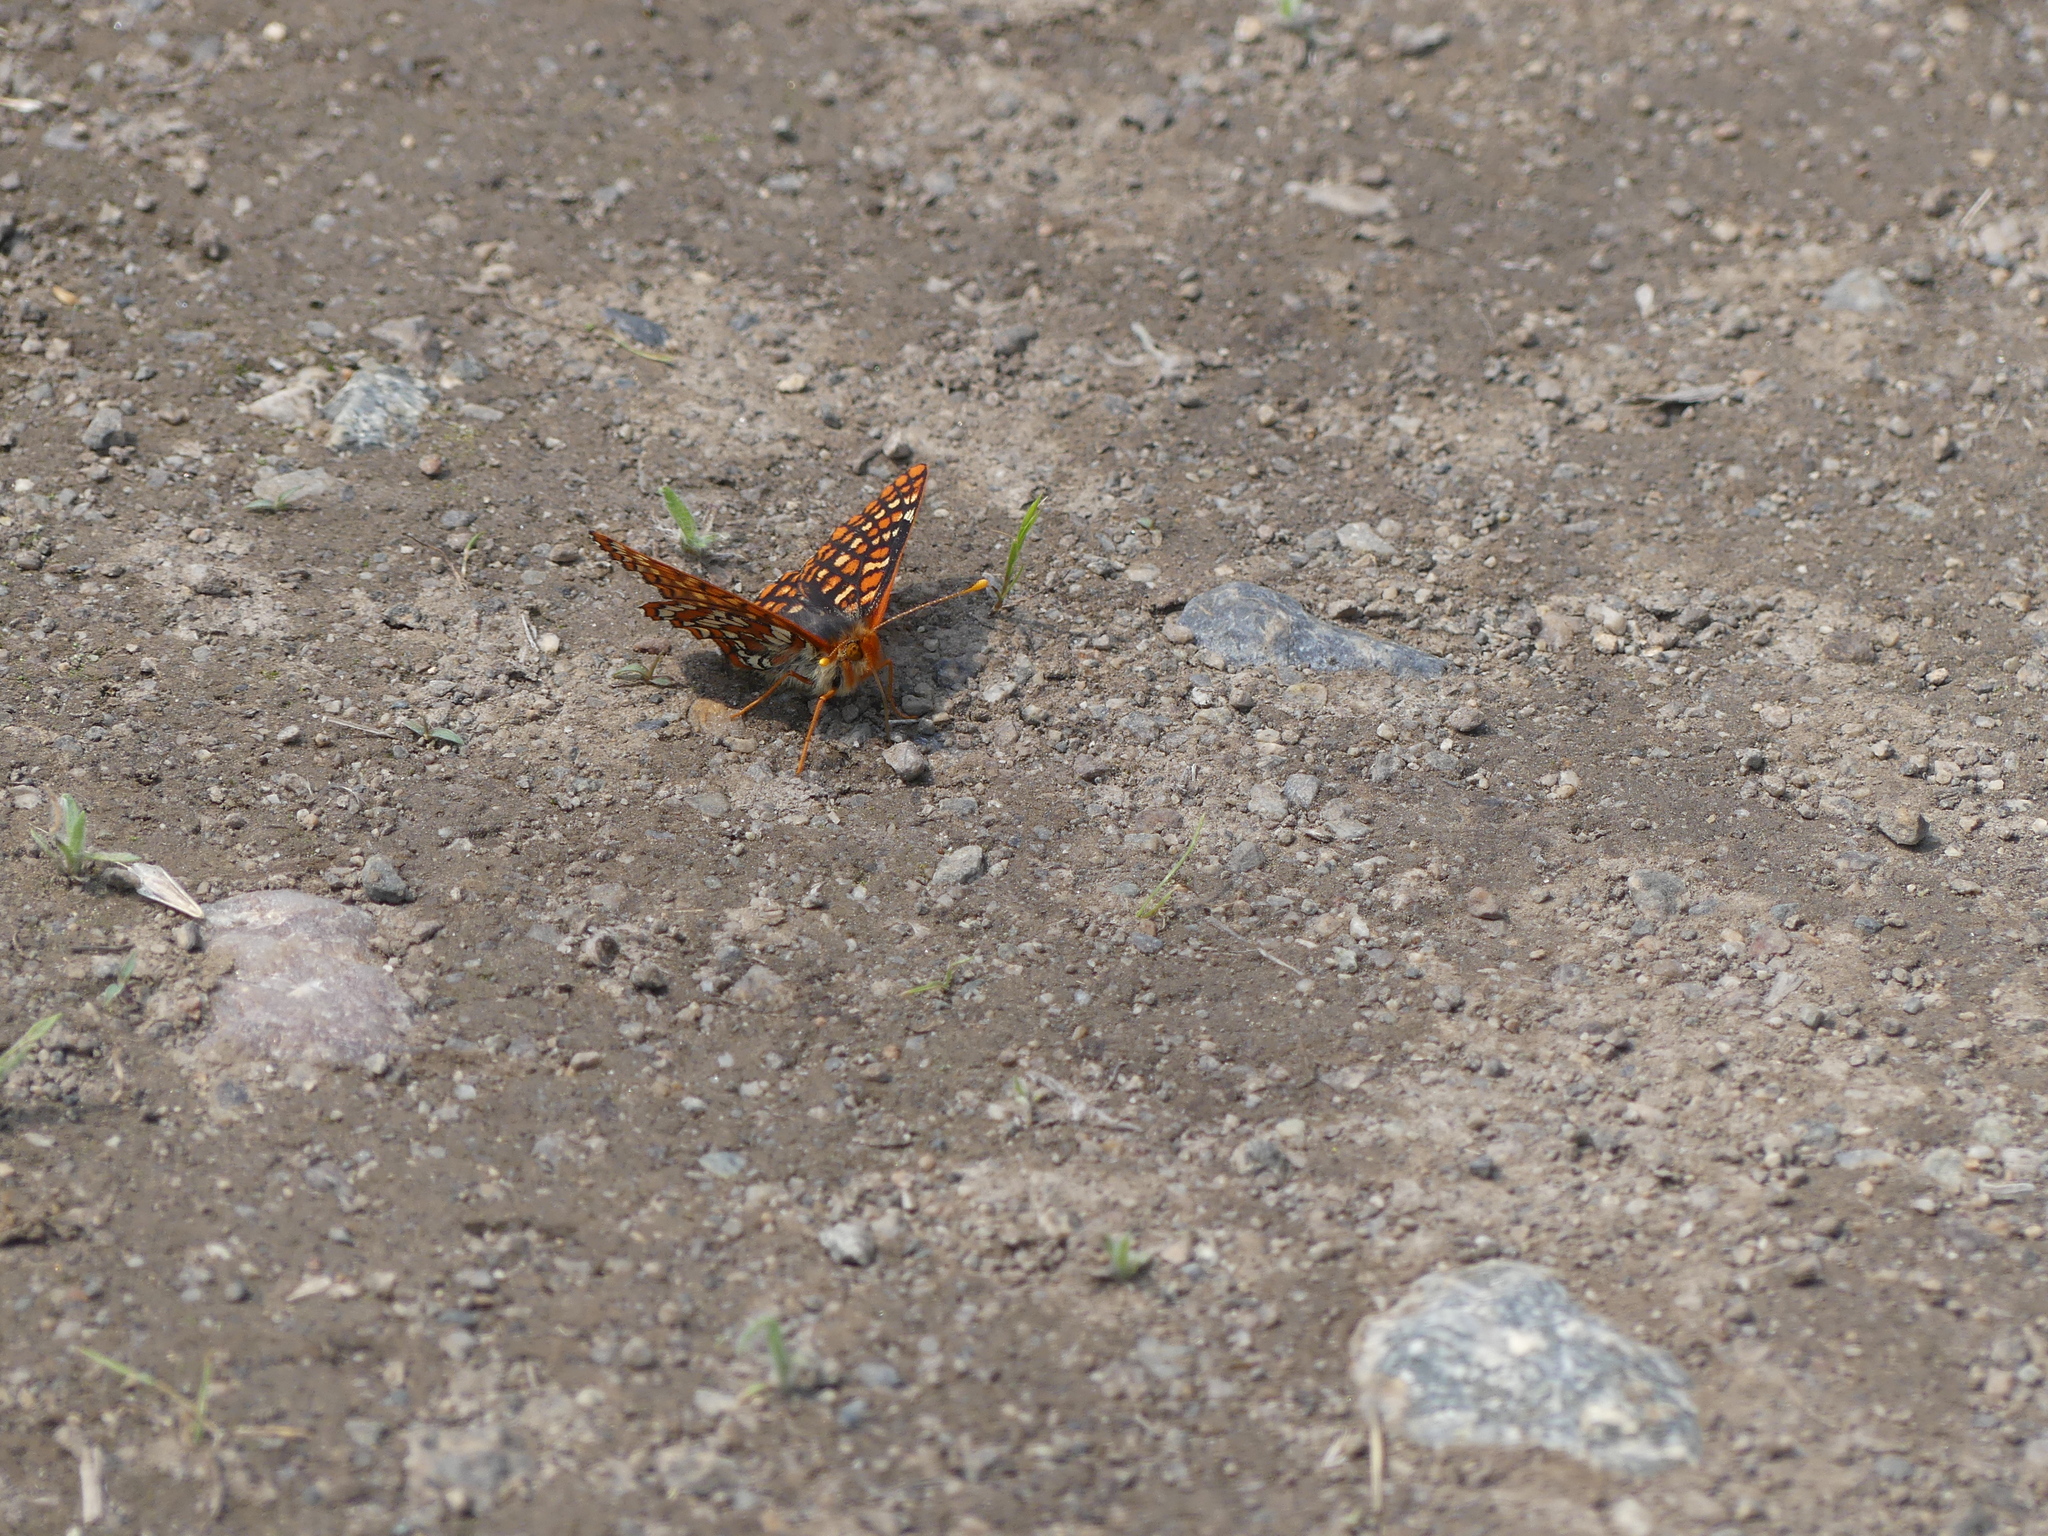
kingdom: Animalia
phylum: Arthropoda
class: Insecta
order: Lepidoptera
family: Nymphalidae
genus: Occidryas
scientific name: Occidryas anicia
